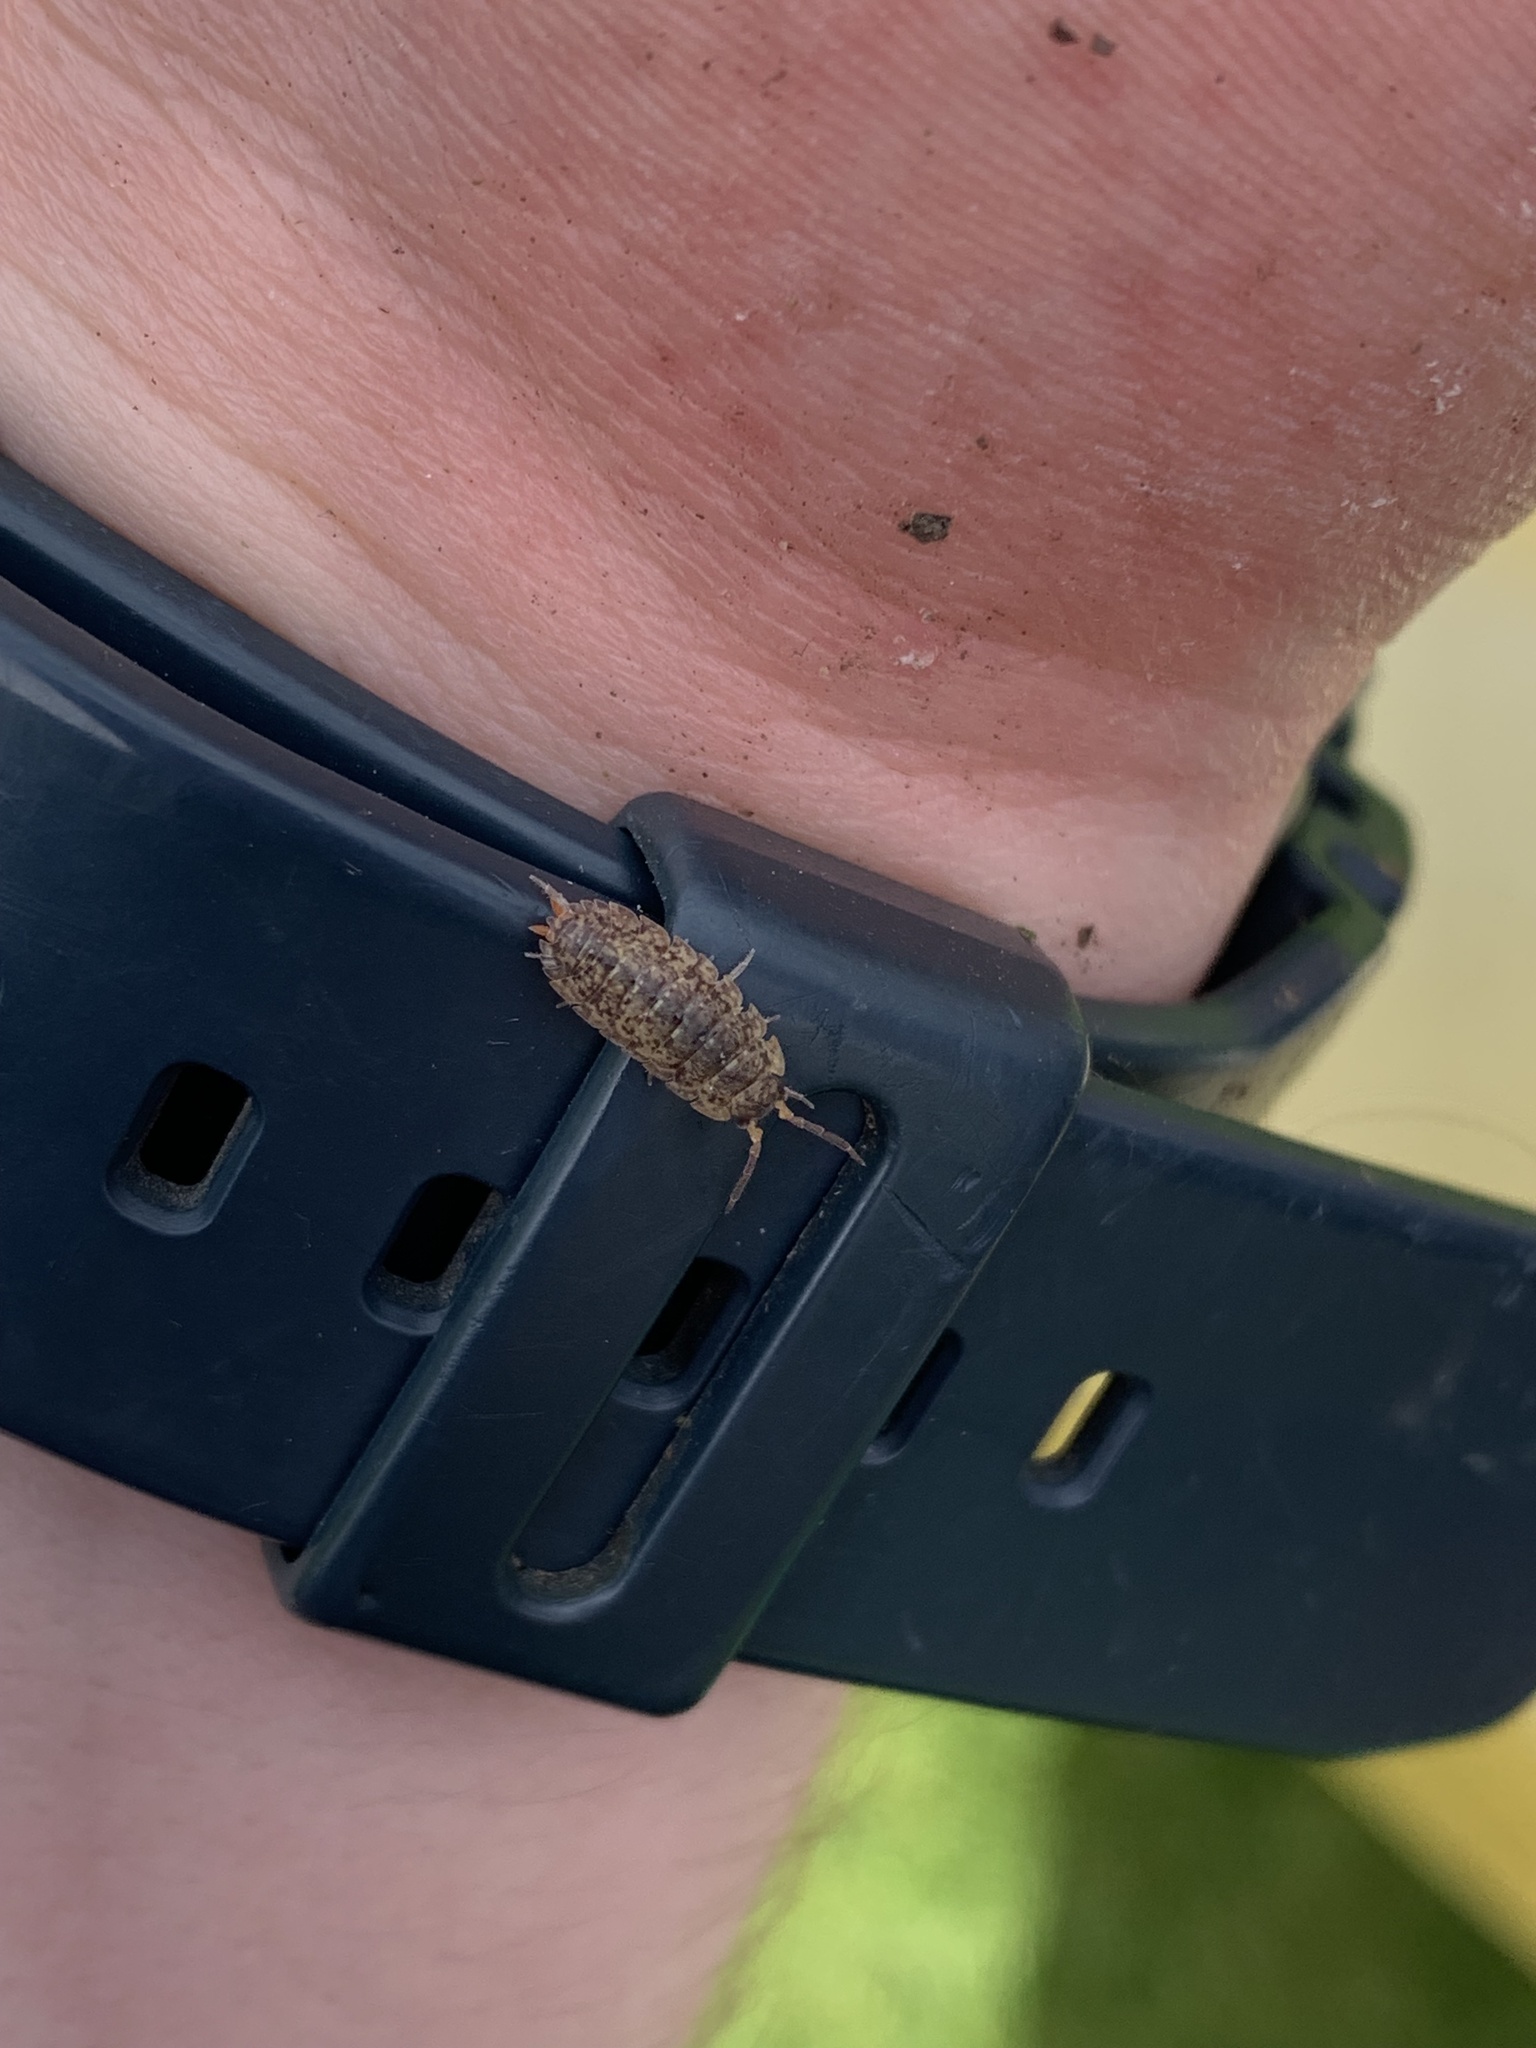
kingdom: Animalia
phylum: Arthropoda
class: Malacostraca
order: Isopoda
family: Porcellionidae
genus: Porcellio
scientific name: Porcellio scaber
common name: Common rough woodlouse
